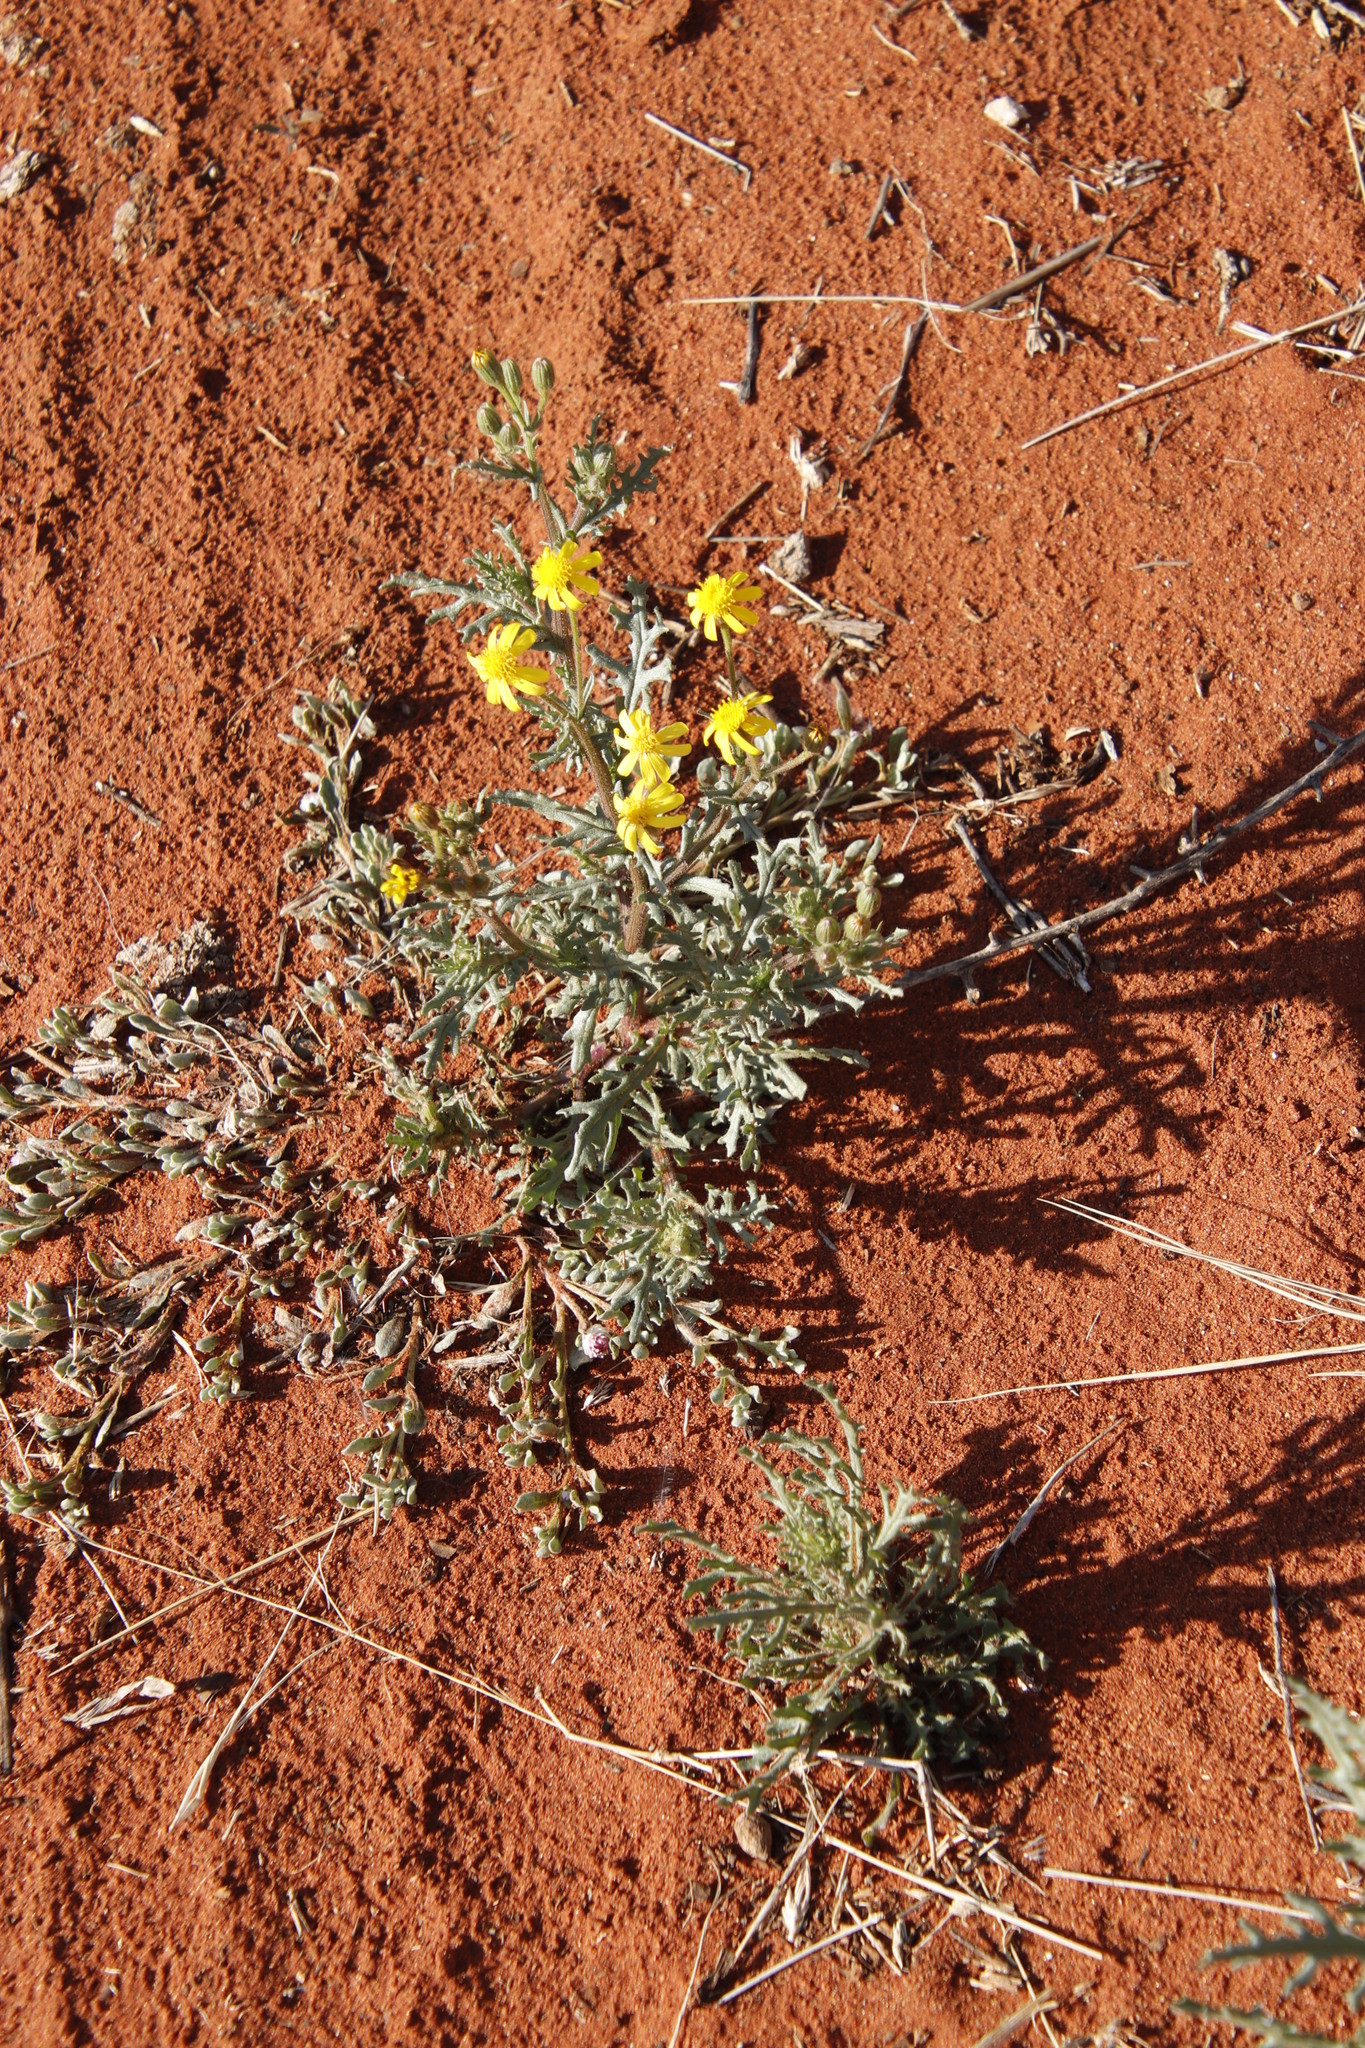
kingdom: Plantae
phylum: Tracheophyta
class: Magnoliopsida
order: Asterales
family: Asteraceae
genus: Senecio
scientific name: Senecio consanguineus
